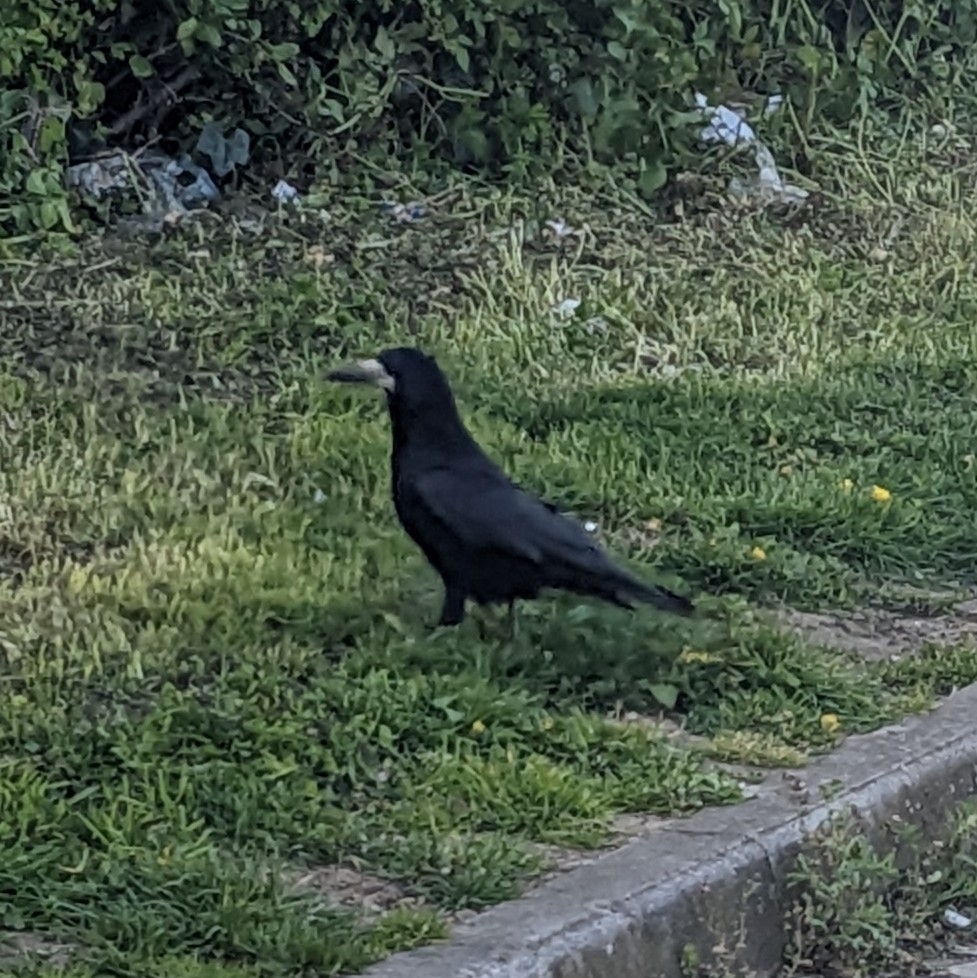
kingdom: Animalia
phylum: Chordata
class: Aves
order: Passeriformes
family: Corvidae
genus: Corvus
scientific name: Corvus frugilegus
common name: Rook
